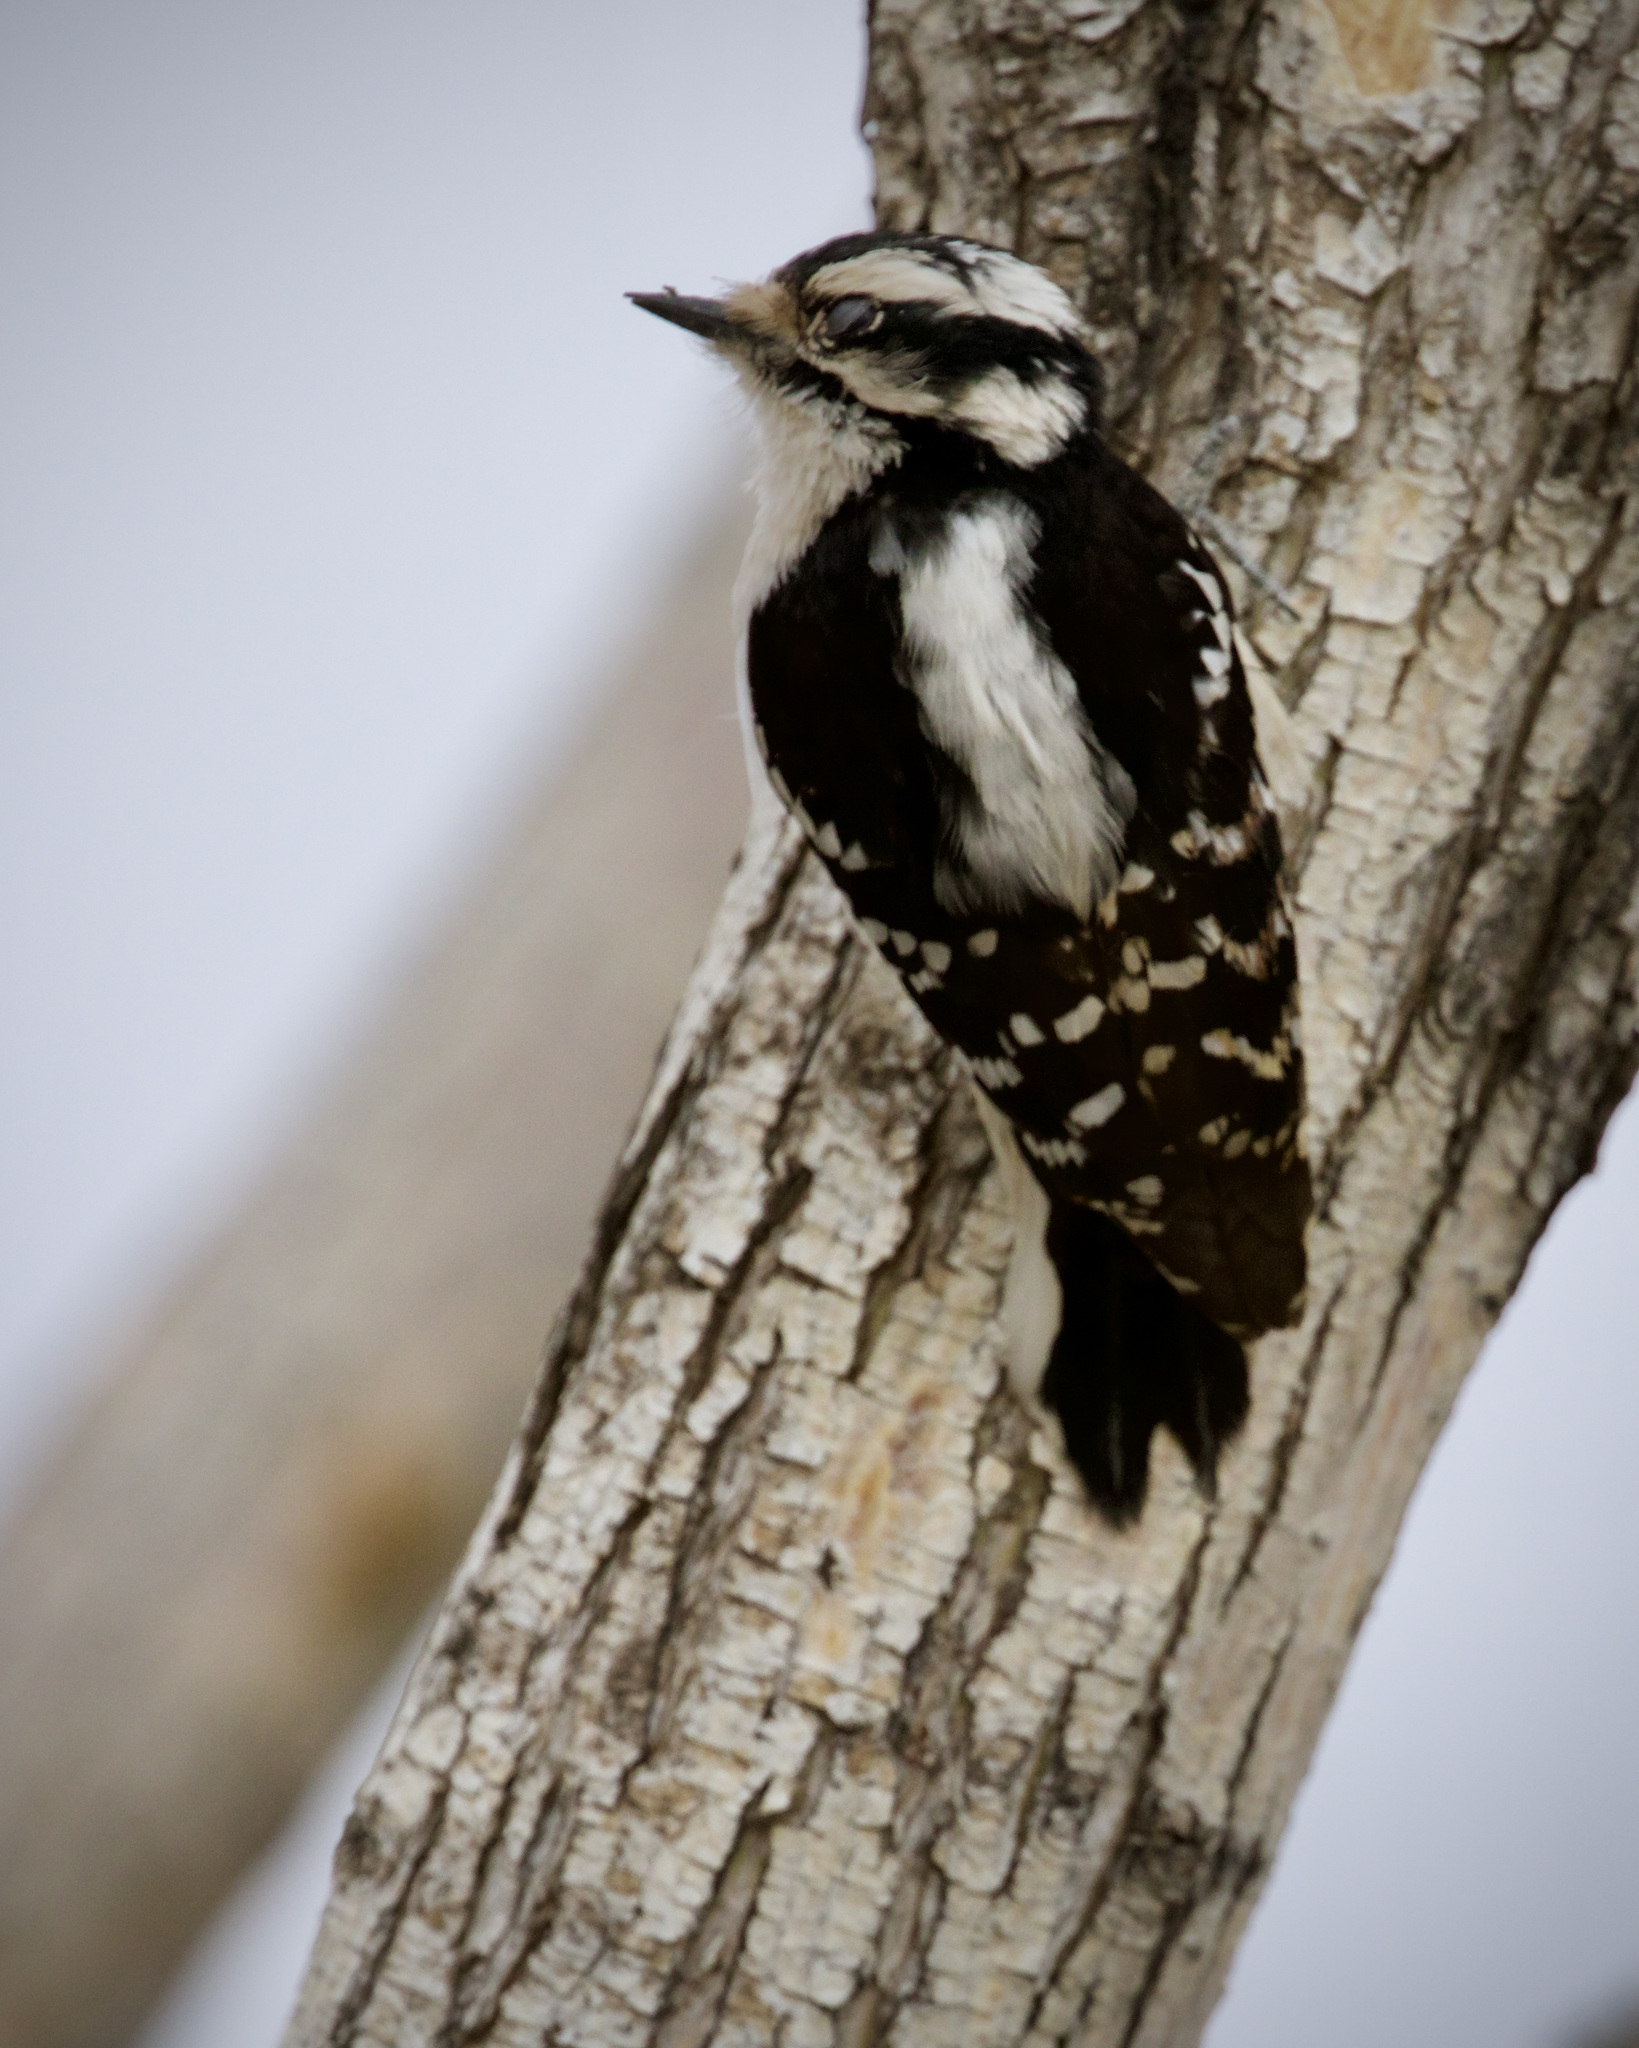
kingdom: Animalia
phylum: Chordata
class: Aves
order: Piciformes
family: Picidae
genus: Dryobates
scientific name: Dryobates pubescens
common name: Downy woodpecker
